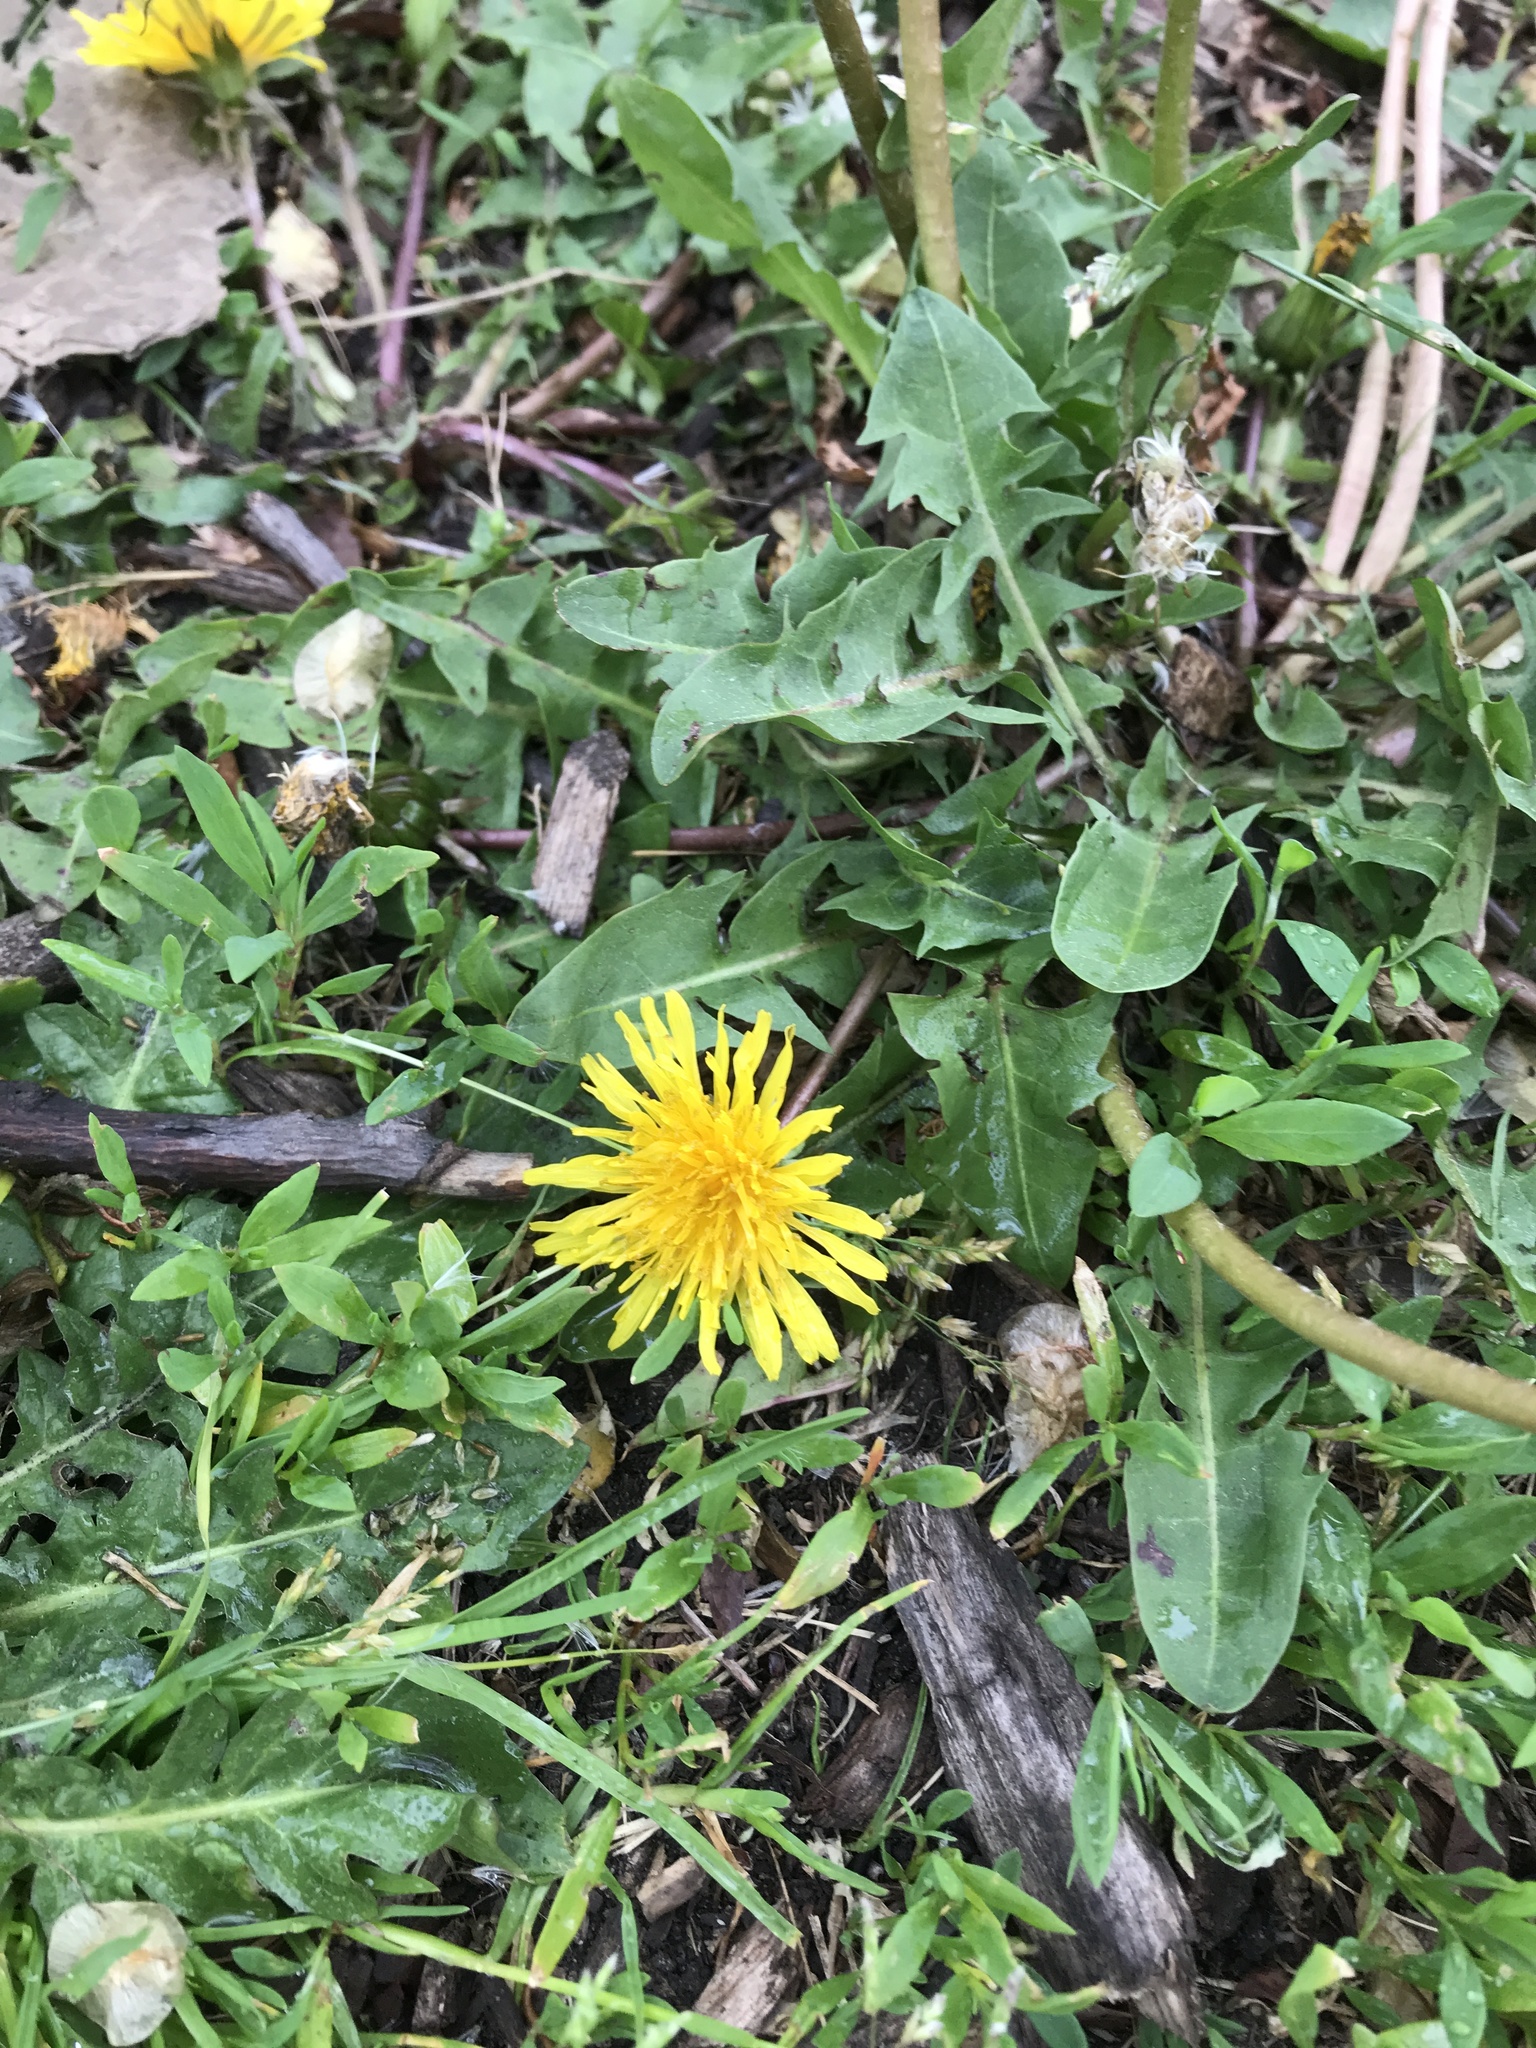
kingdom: Plantae
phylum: Tracheophyta
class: Magnoliopsida
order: Asterales
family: Asteraceae
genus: Taraxacum
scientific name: Taraxacum officinale
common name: Common dandelion
